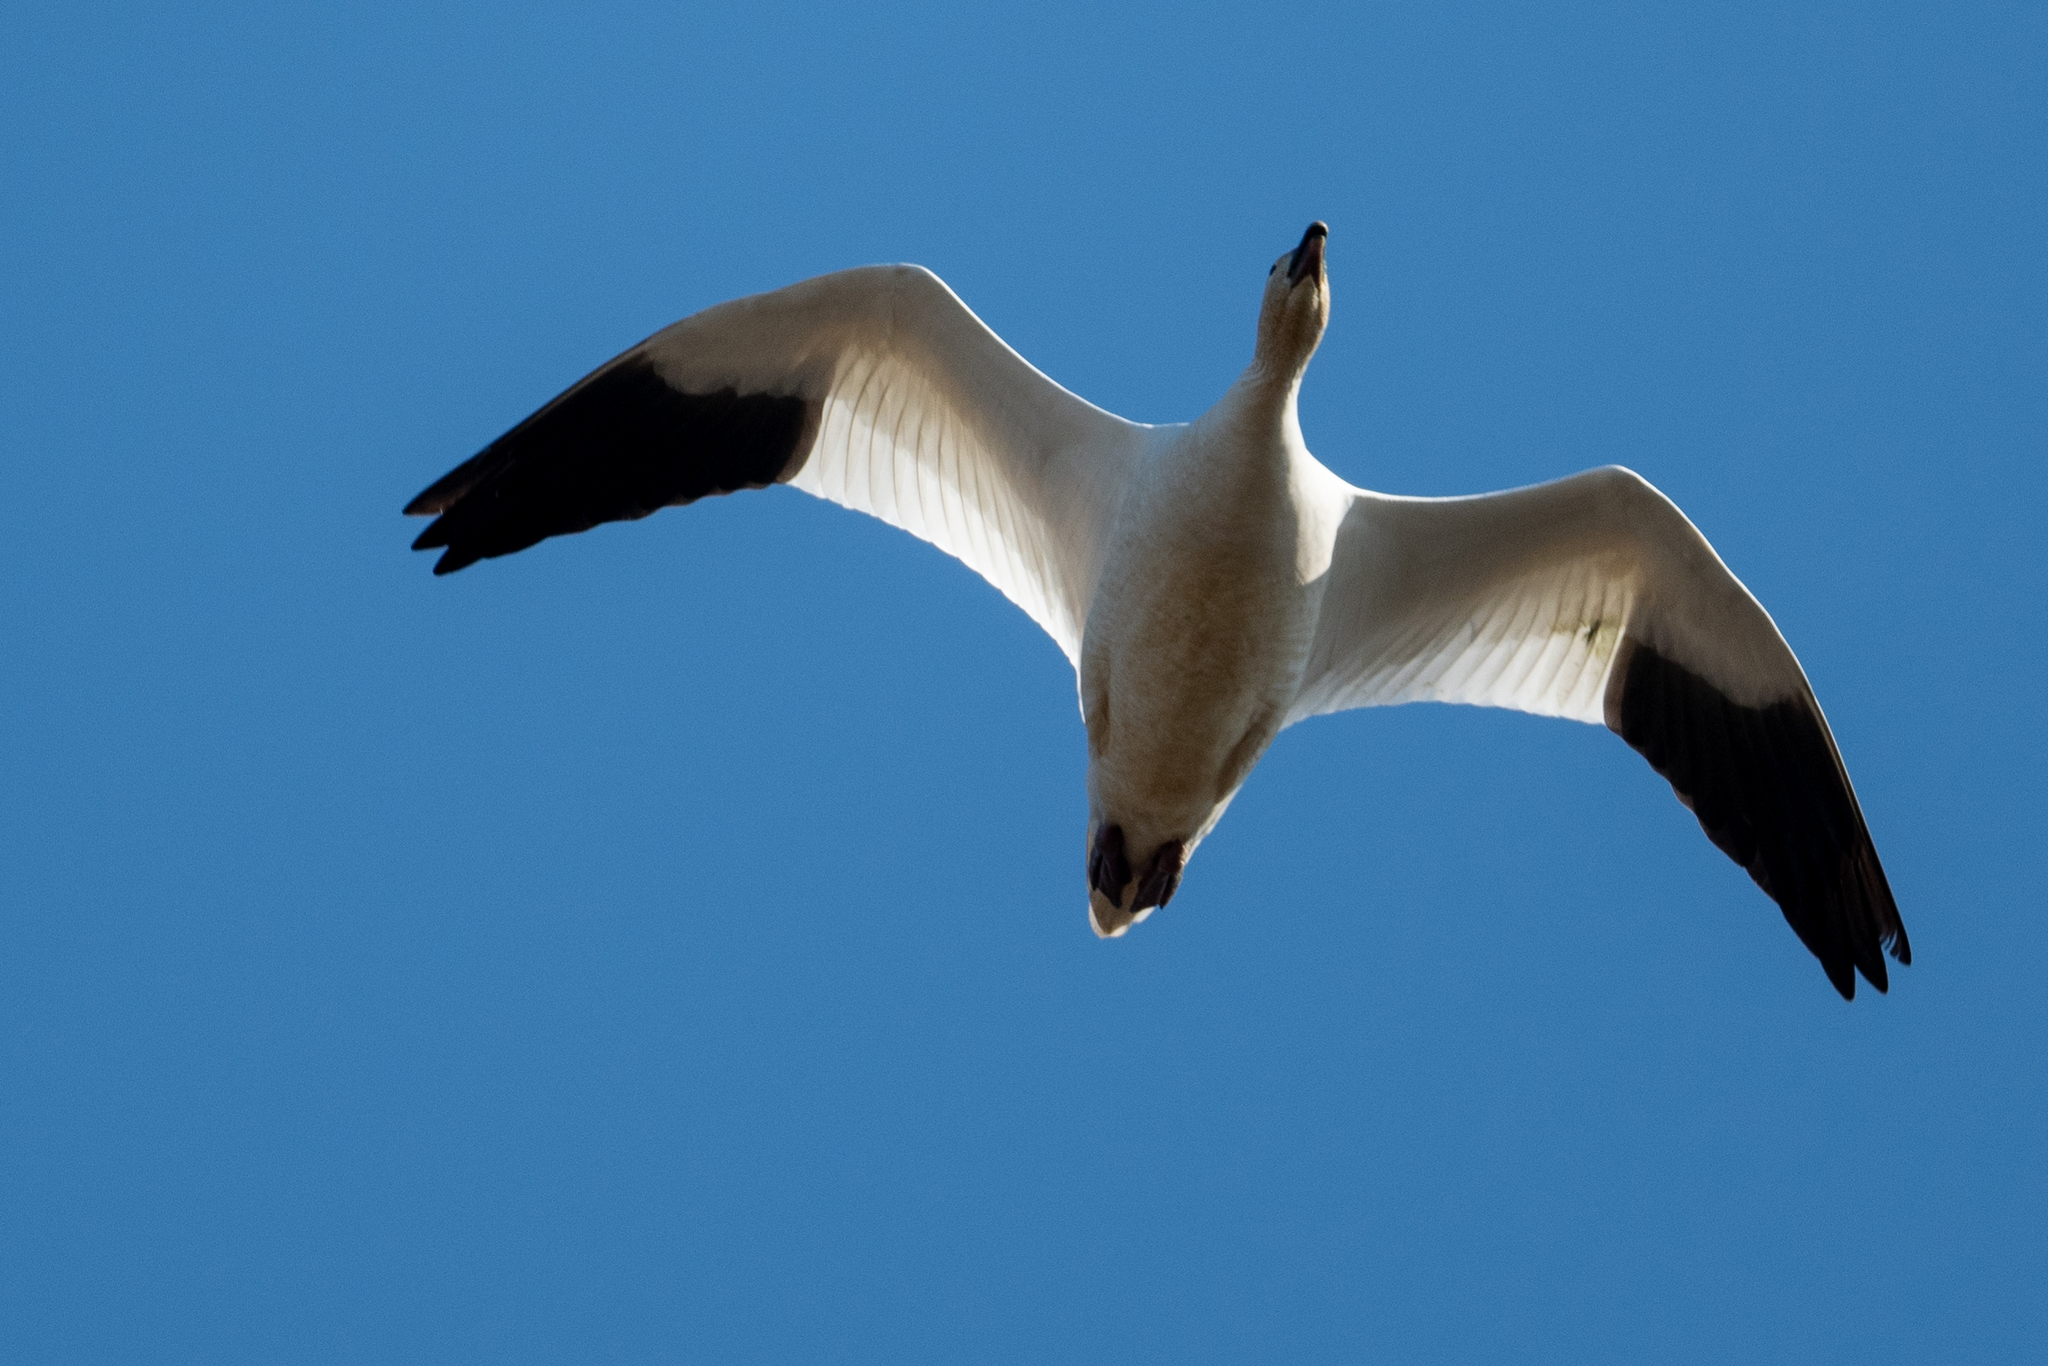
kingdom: Animalia
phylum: Chordata
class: Aves
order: Anseriformes
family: Anatidae
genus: Anser
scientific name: Anser caerulescens
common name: Snow goose
